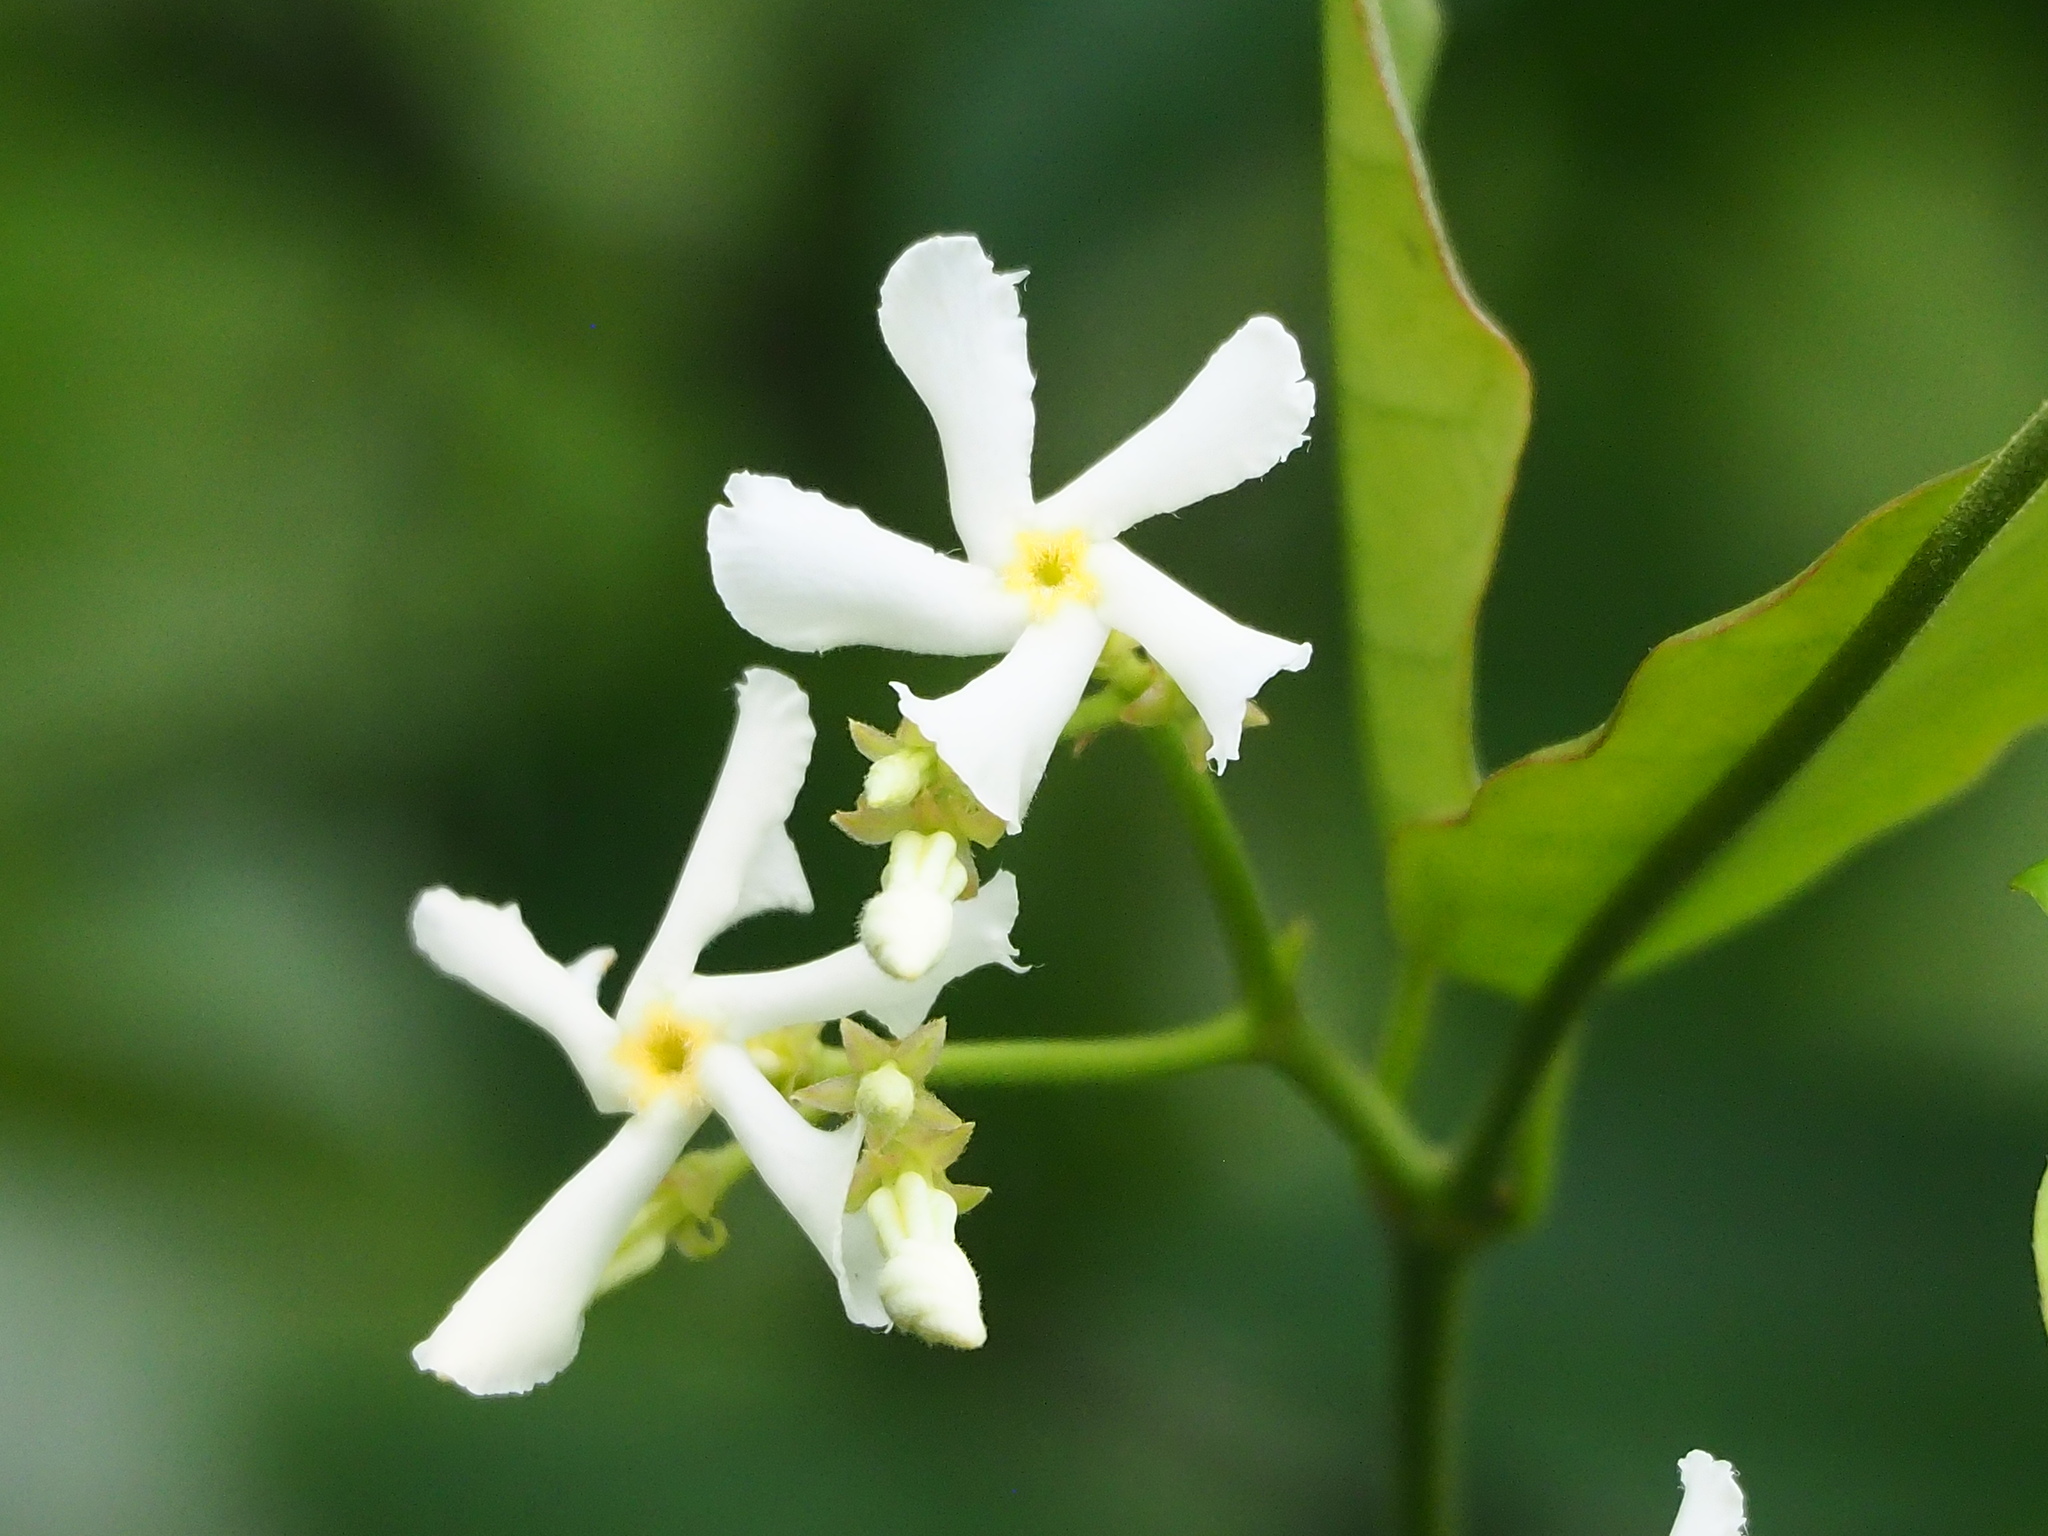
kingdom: Plantae
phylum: Tracheophyta
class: Magnoliopsida
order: Gentianales
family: Apocynaceae
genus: Trachelospermum
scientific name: Trachelospermum jasminoides
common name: Confederate jasmine
